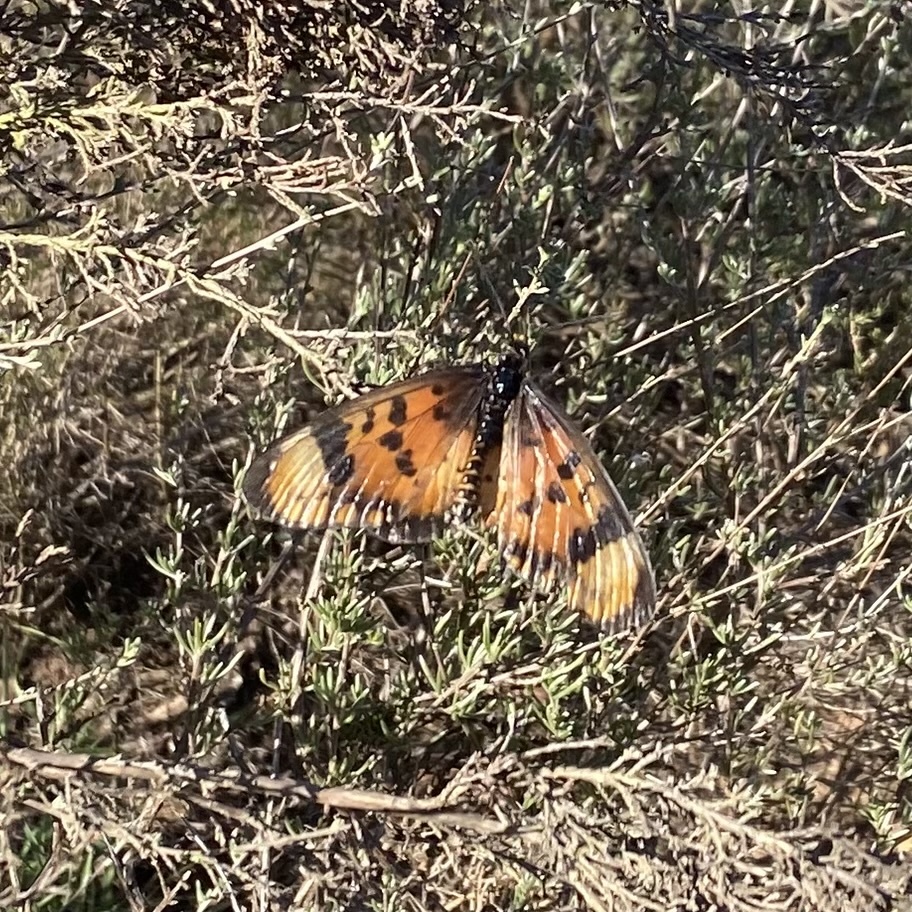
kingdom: Animalia
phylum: Arthropoda
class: Insecta
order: Lepidoptera
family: Nymphalidae
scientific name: Nymphalidae
